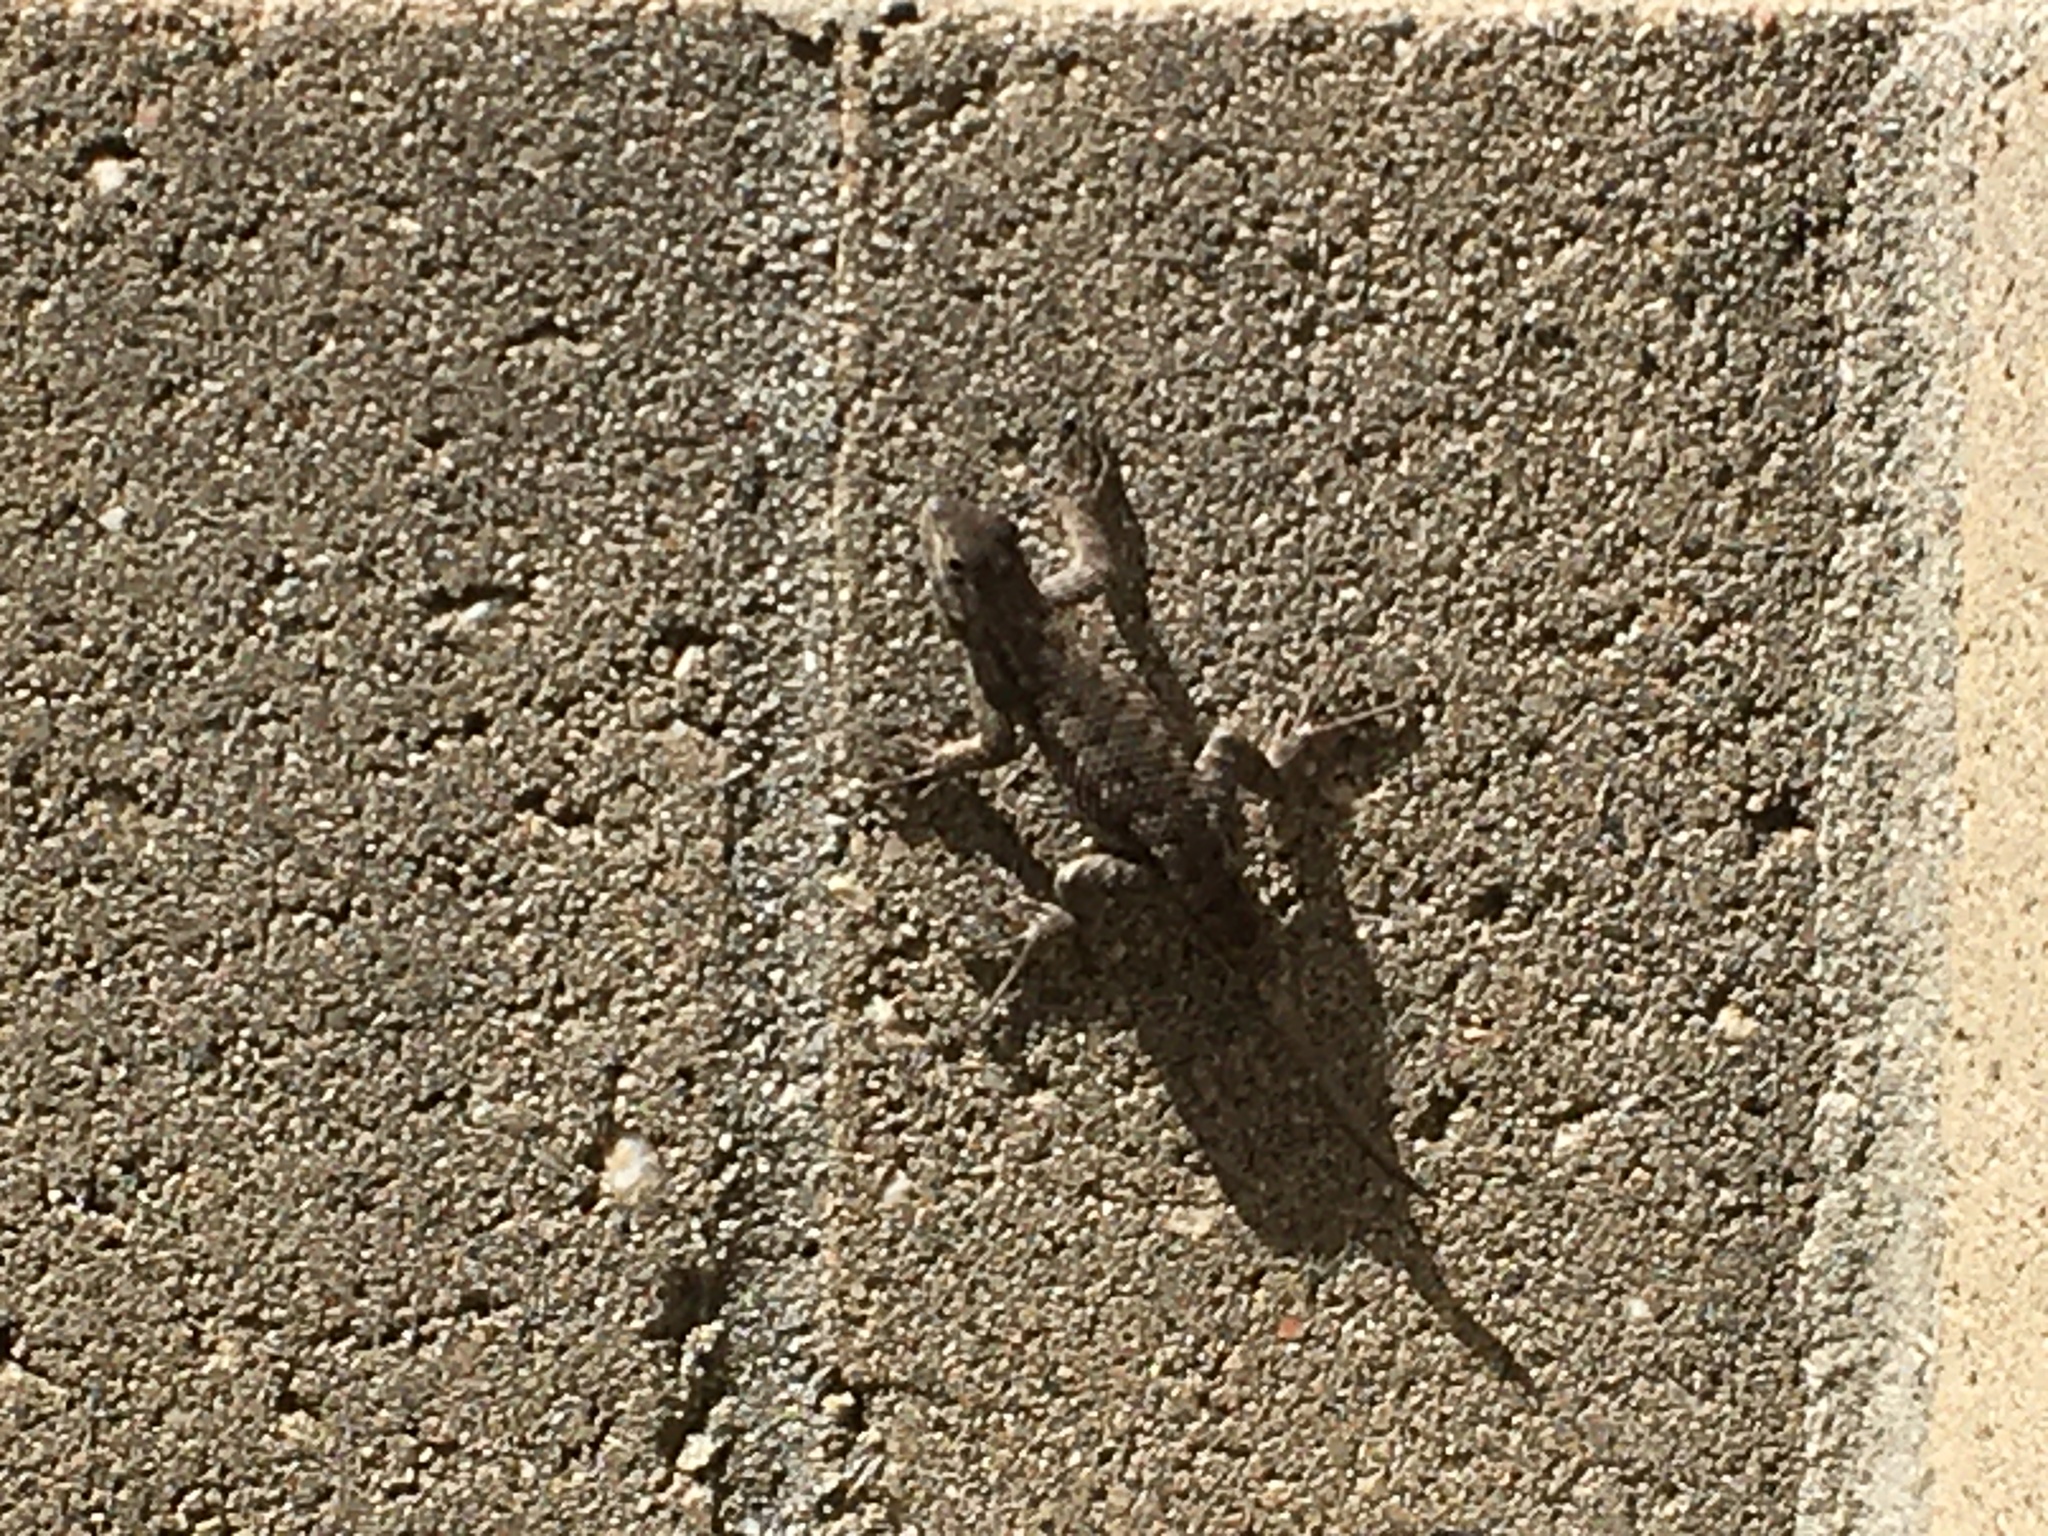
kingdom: Animalia
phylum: Chordata
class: Squamata
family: Phrynosomatidae
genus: Sceloporus
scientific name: Sceloporus occidentalis
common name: Western fence lizard
